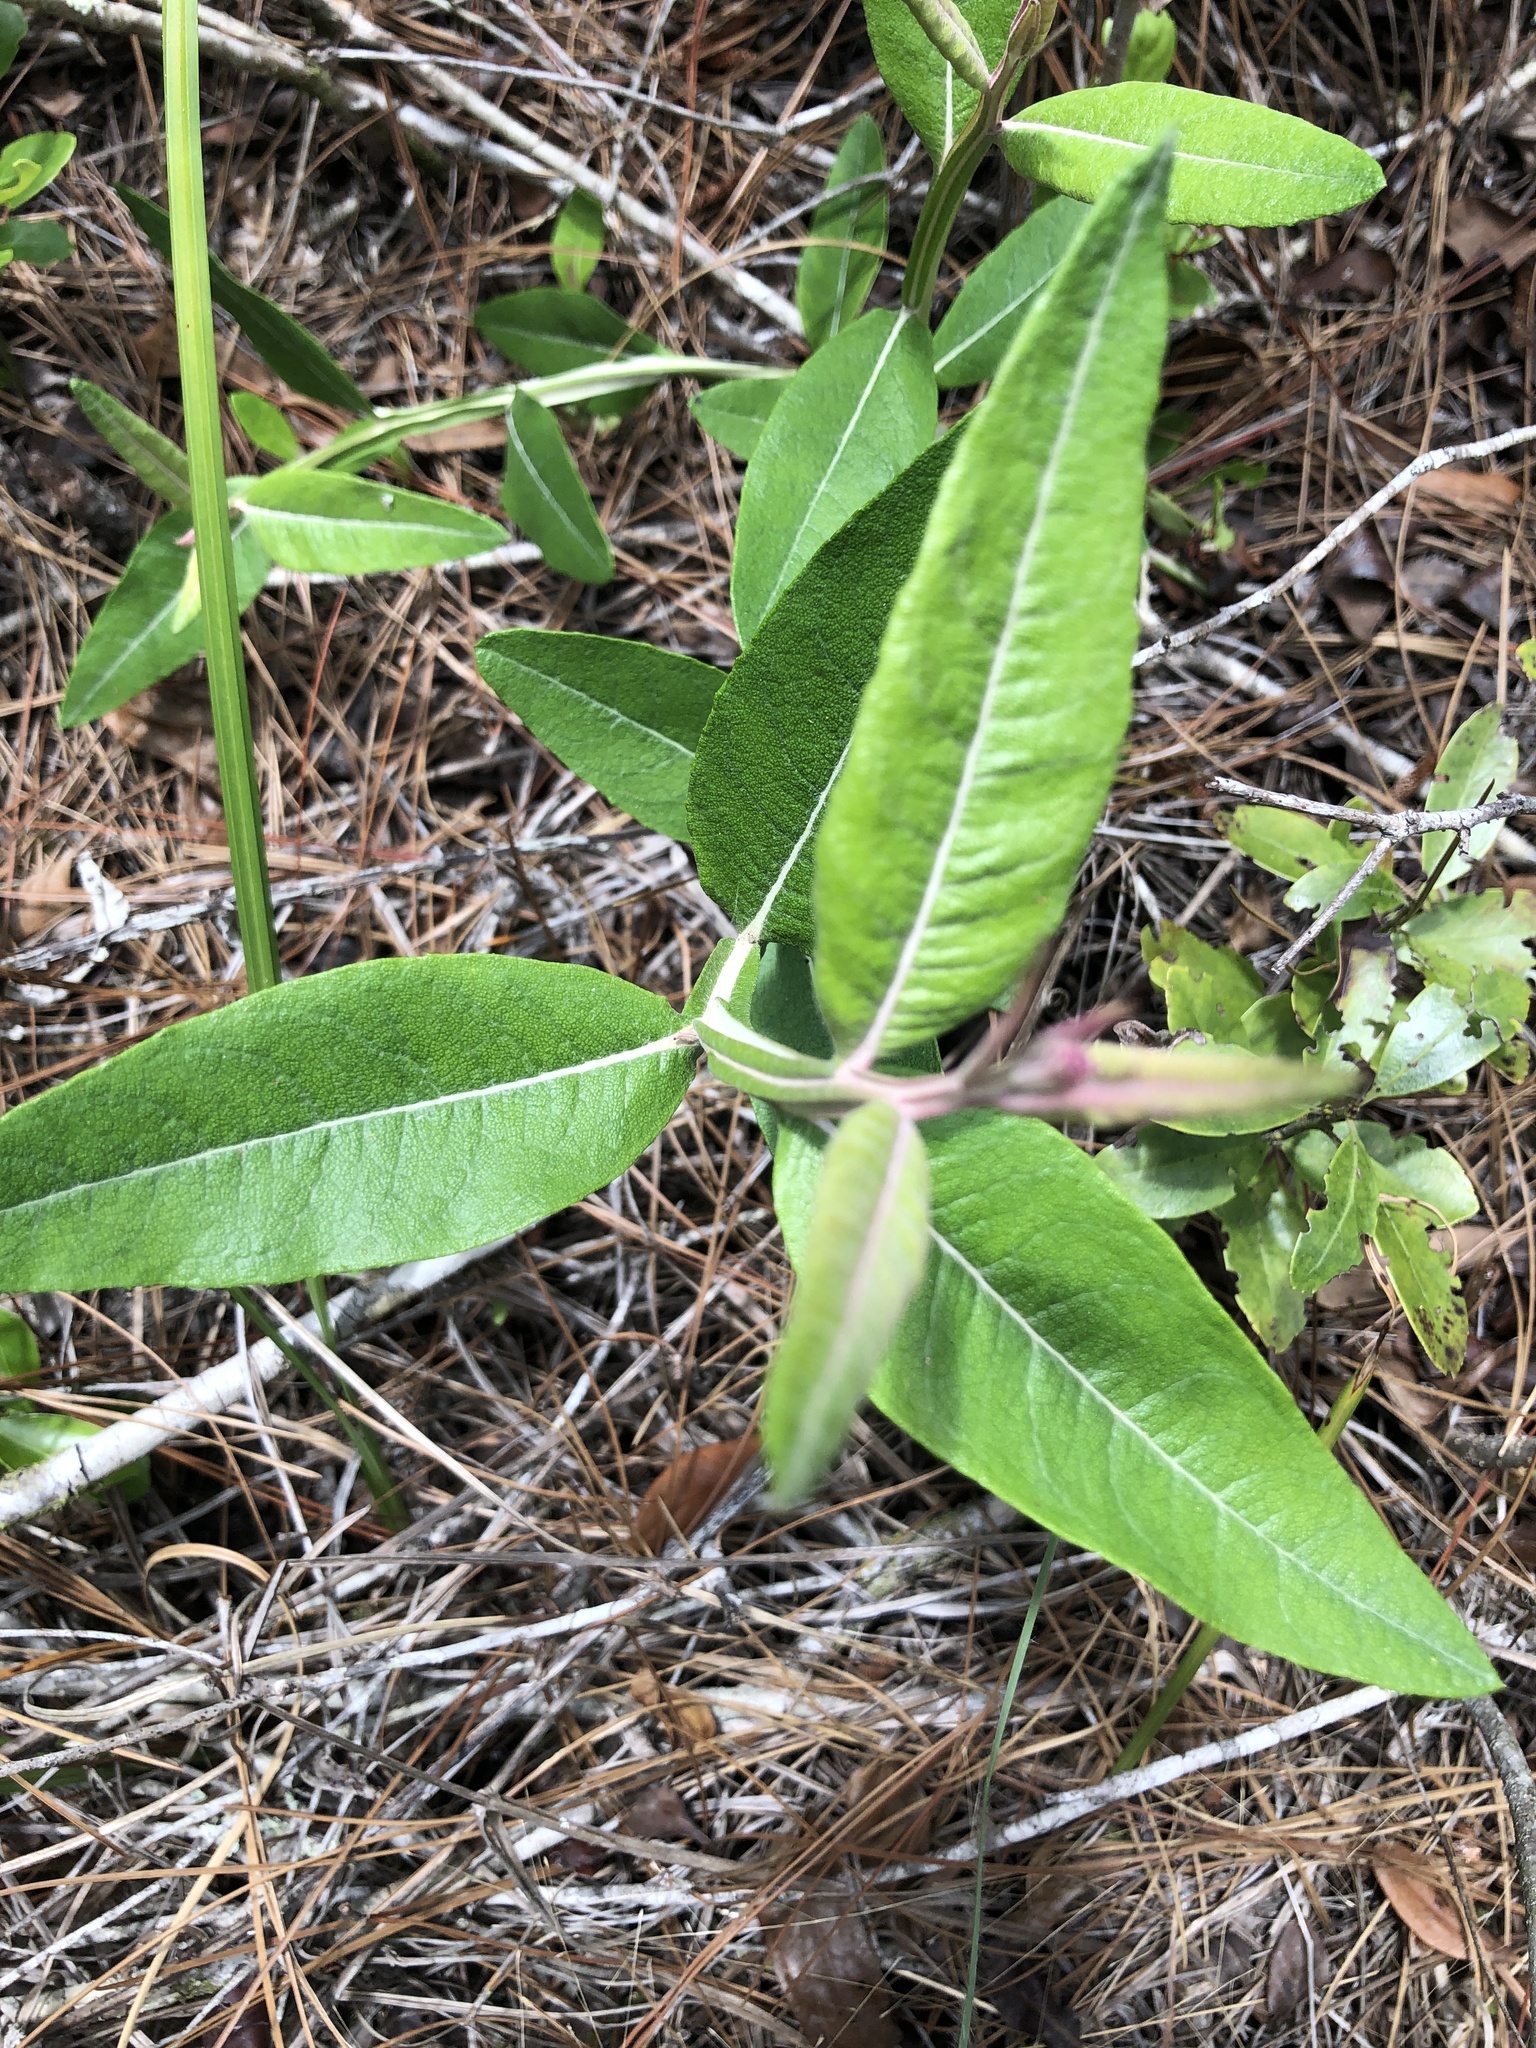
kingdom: Plantae
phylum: Tracheophyta
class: Magnoliopsida
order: Asterales
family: Asteraceae
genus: Pterocaulon
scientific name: Pterocaulon pycnostachyum
